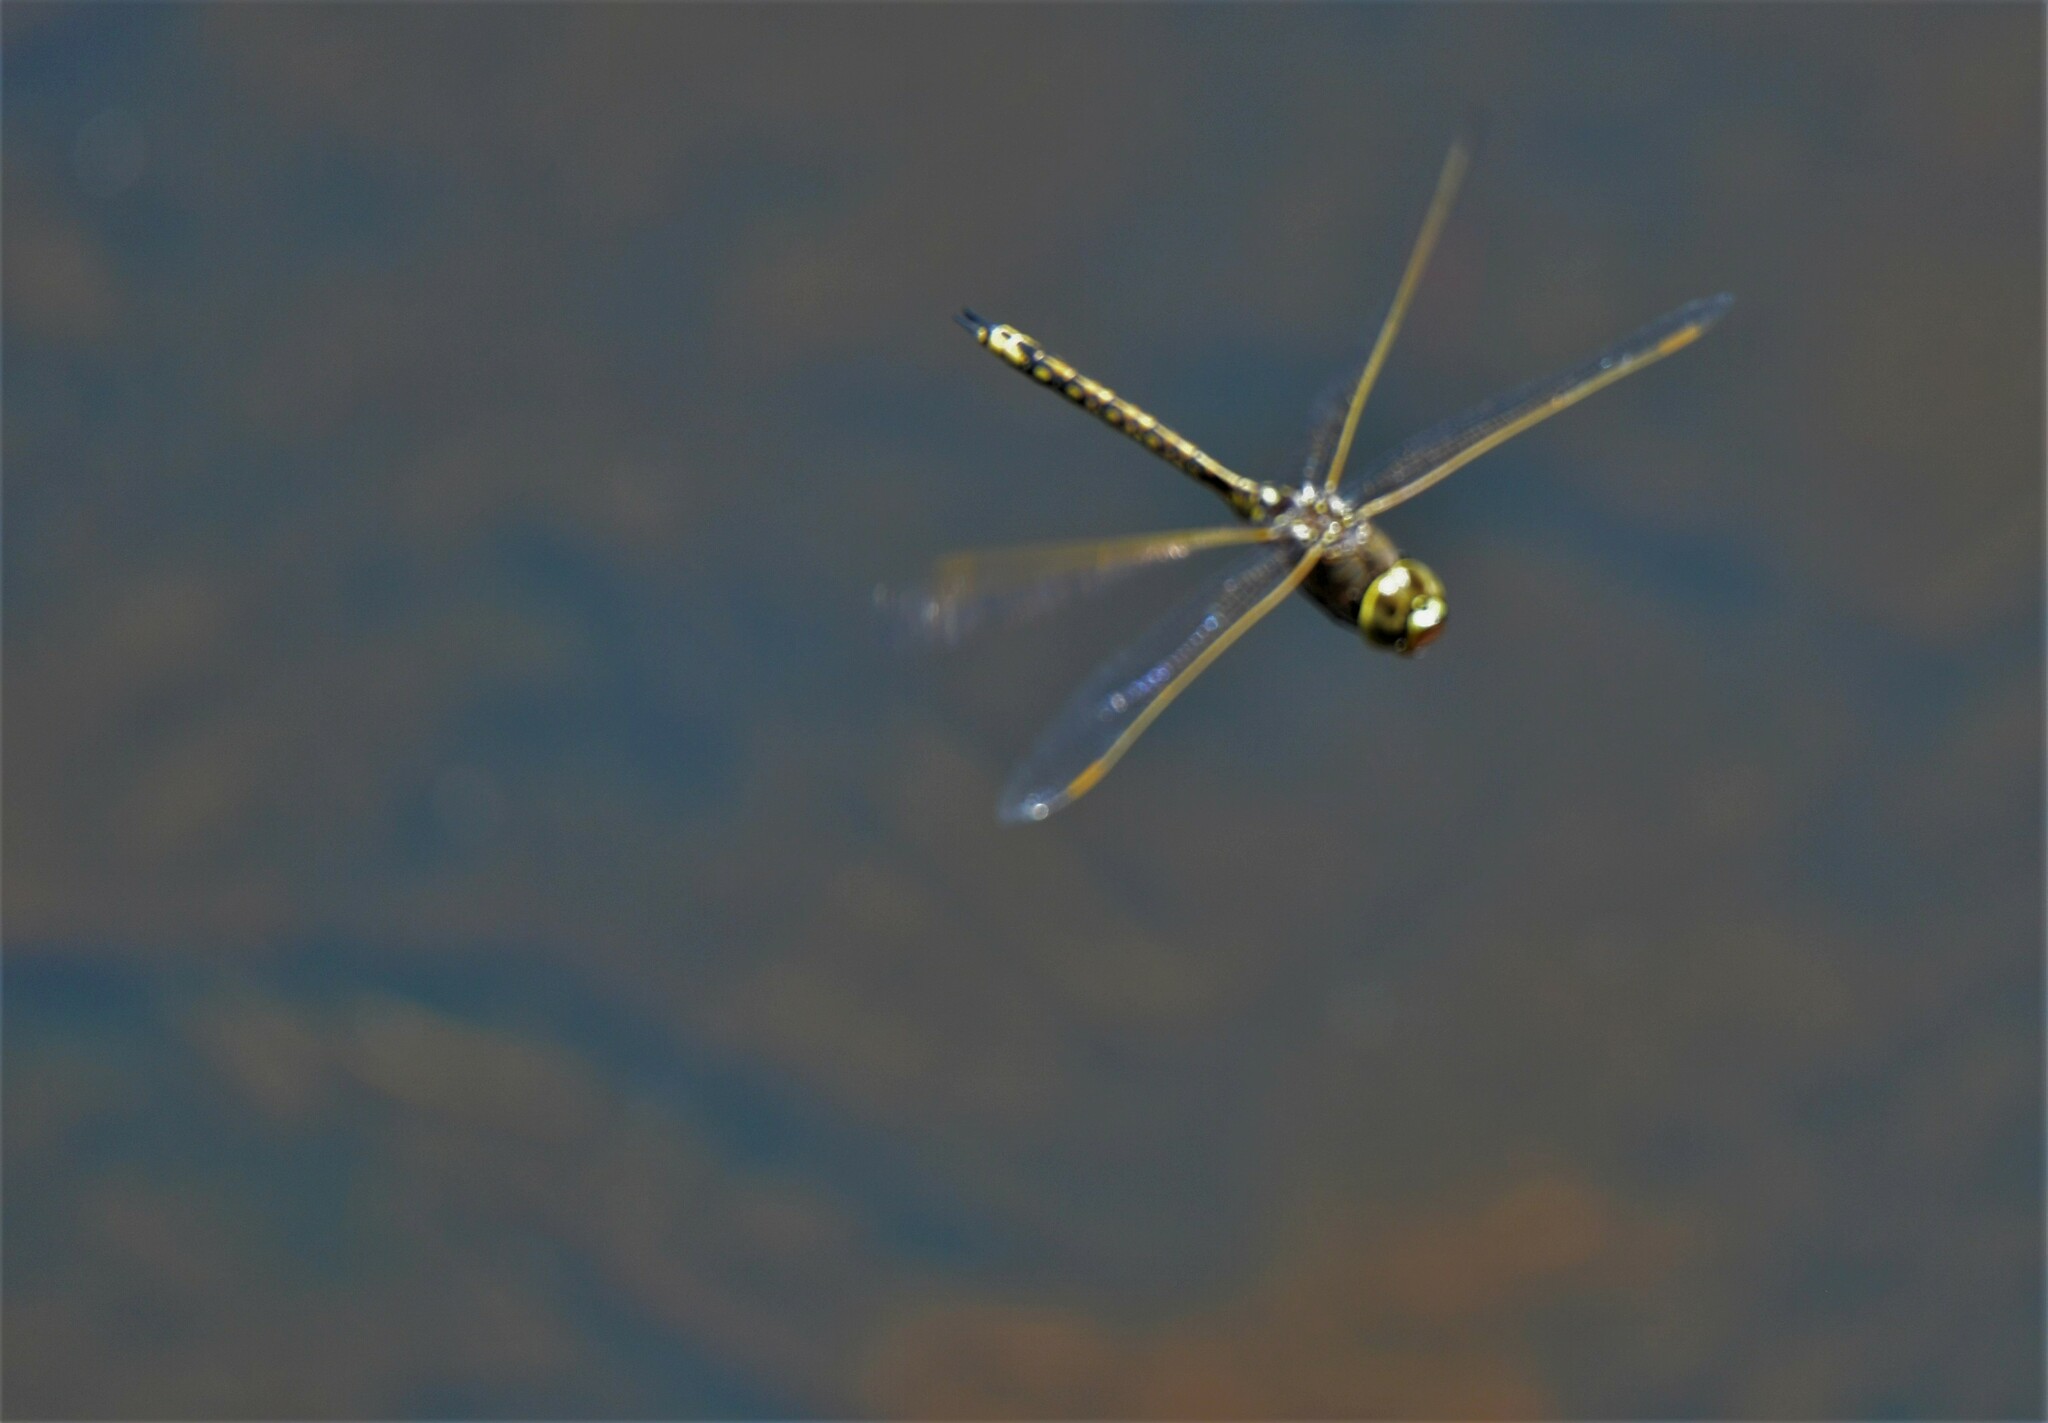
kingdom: Animalia
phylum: Arthropoda
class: Insecta
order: Odonata
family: Aeshnidae
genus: Anax
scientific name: Anax papuensis
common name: Australian emperor
